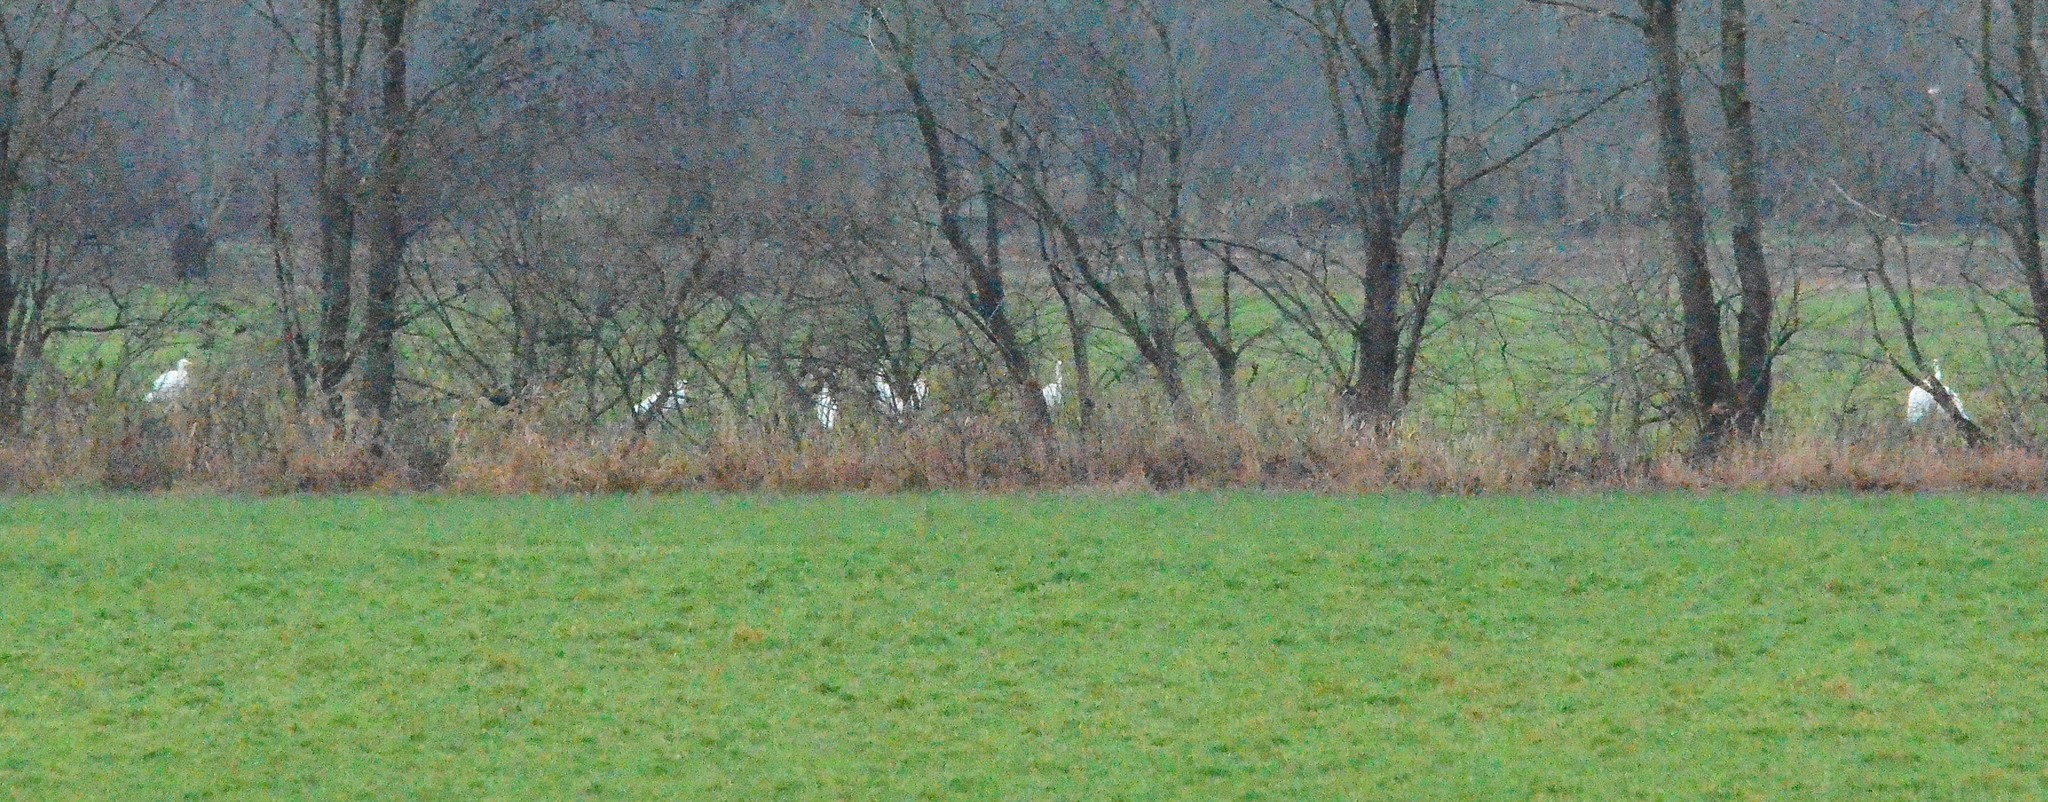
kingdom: Animalia
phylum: Chordata
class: Aves
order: Pelecaniformes
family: Ardeidae
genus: Ardea
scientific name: Ardea alba
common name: Great egret
